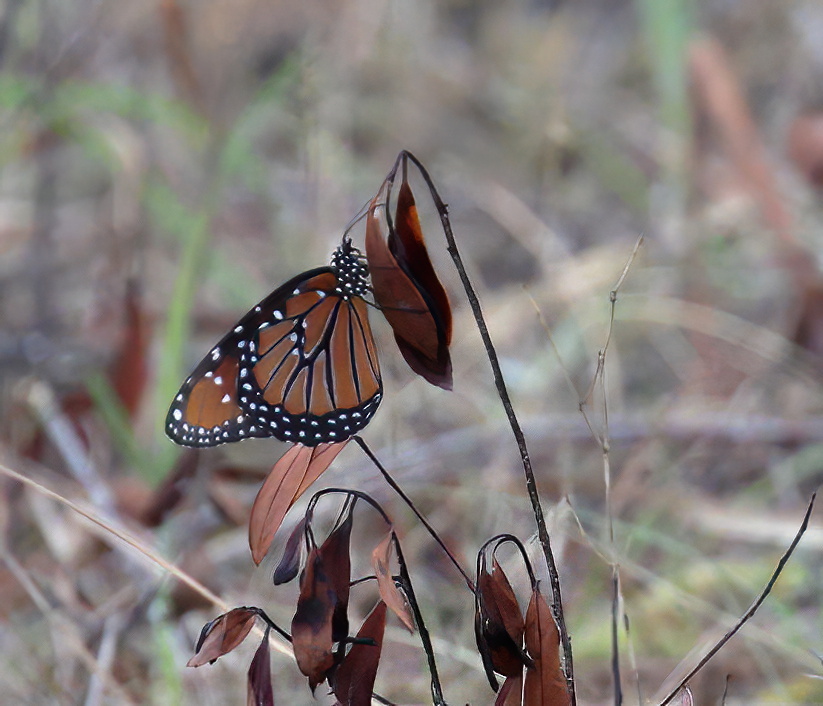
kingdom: Animalia
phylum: Arthropoda
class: Insecta
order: Lepidoptera
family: Nymphalidae
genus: Danaus
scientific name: Danaus gilippus
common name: Queen
